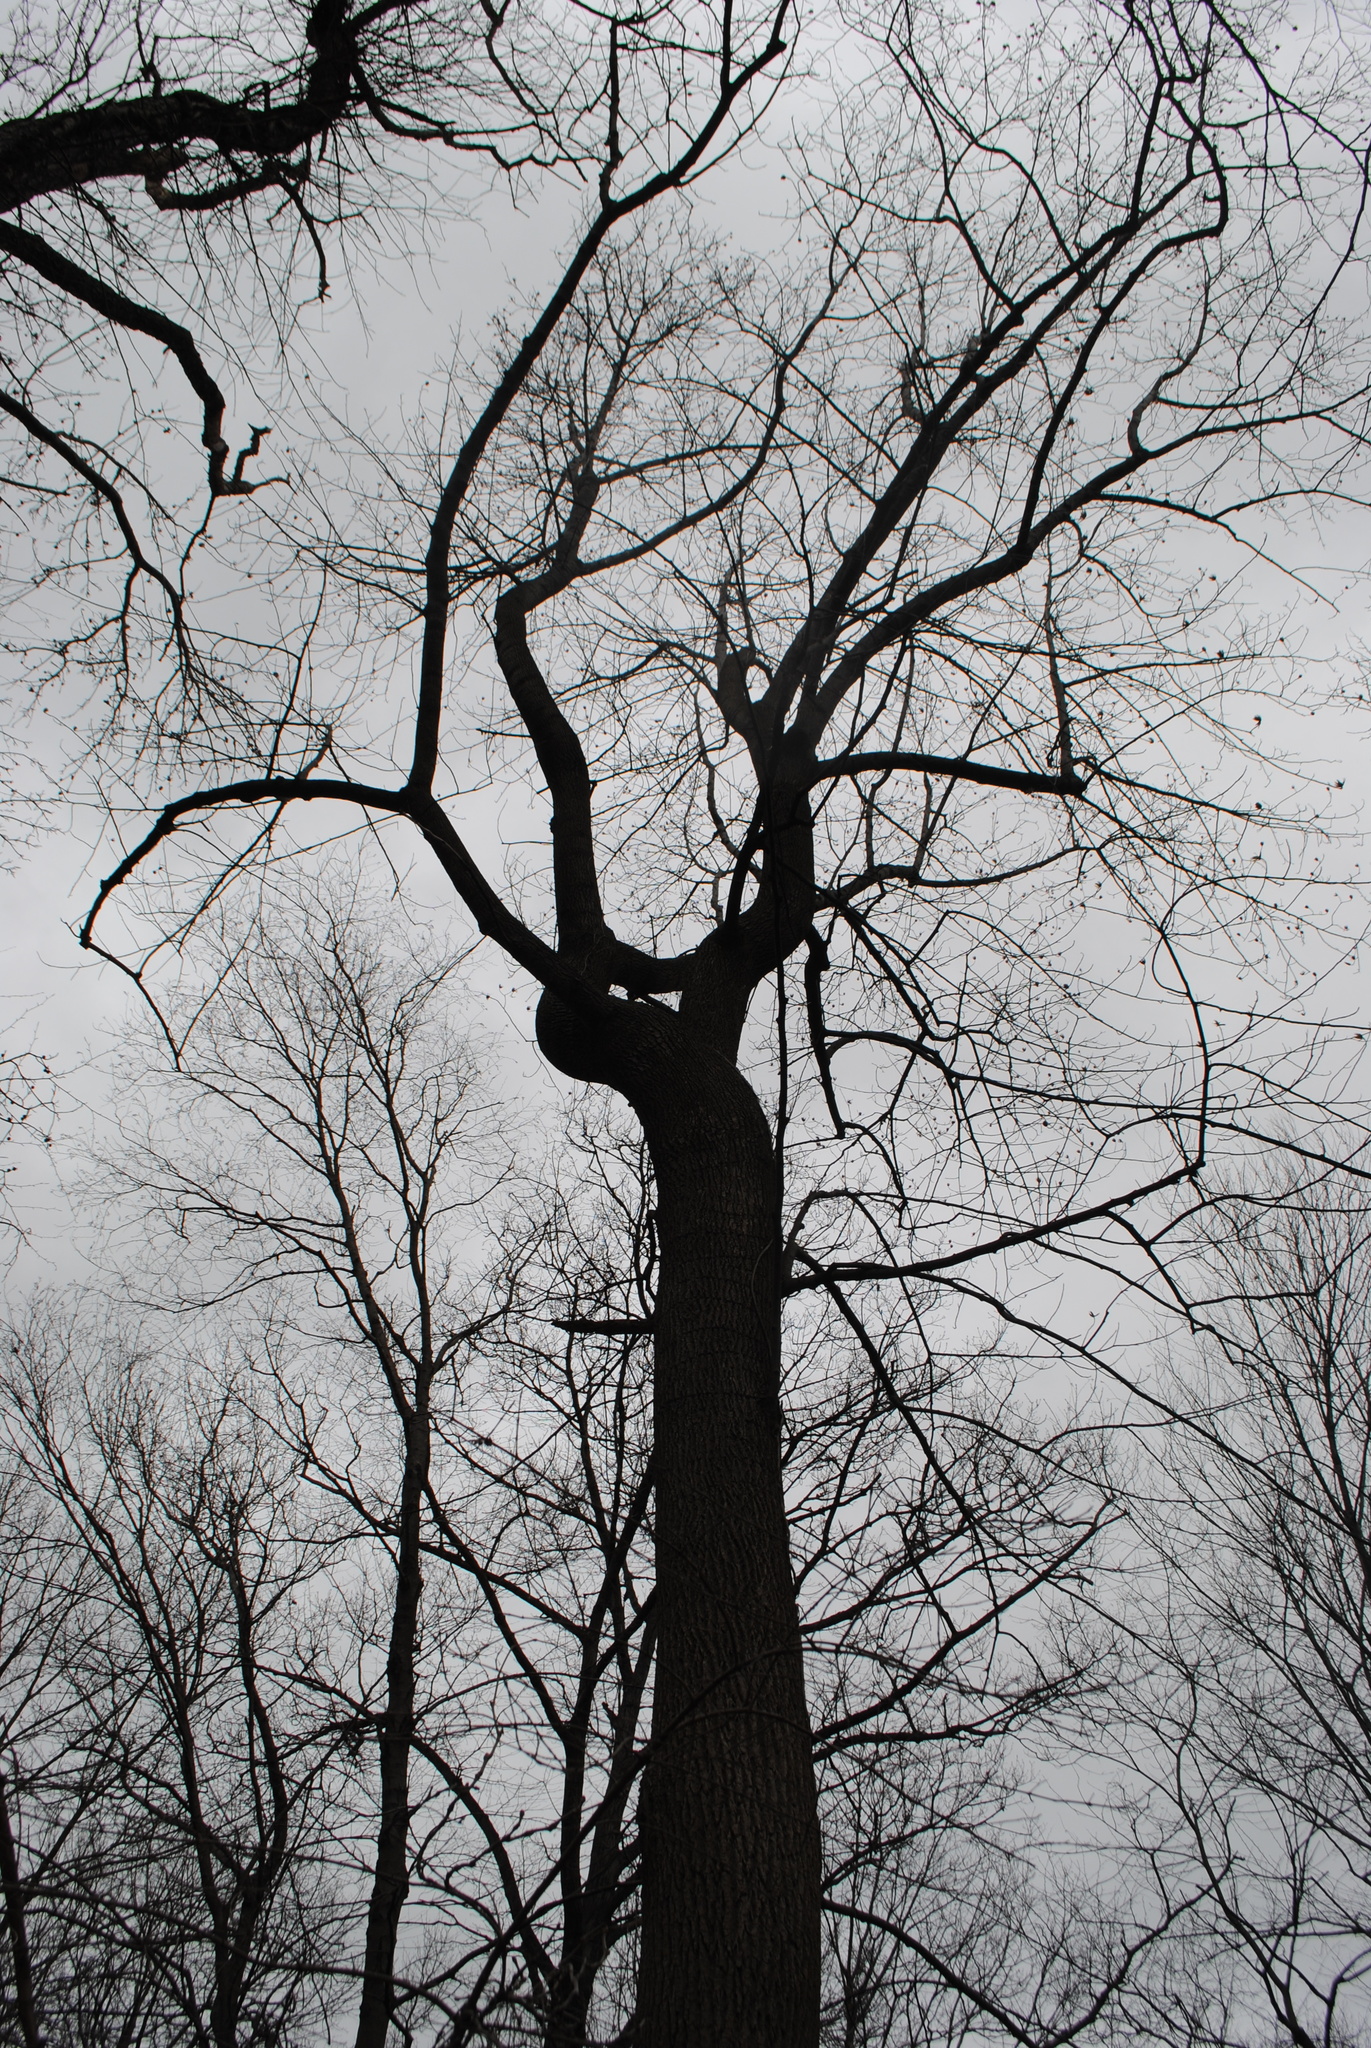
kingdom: Plantae
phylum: Tracheophyta
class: Magnoliopsida
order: Magnoliales
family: Magnoliaceae
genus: Liriodendron
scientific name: Liriodendron tulipifera
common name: Tulip tree
